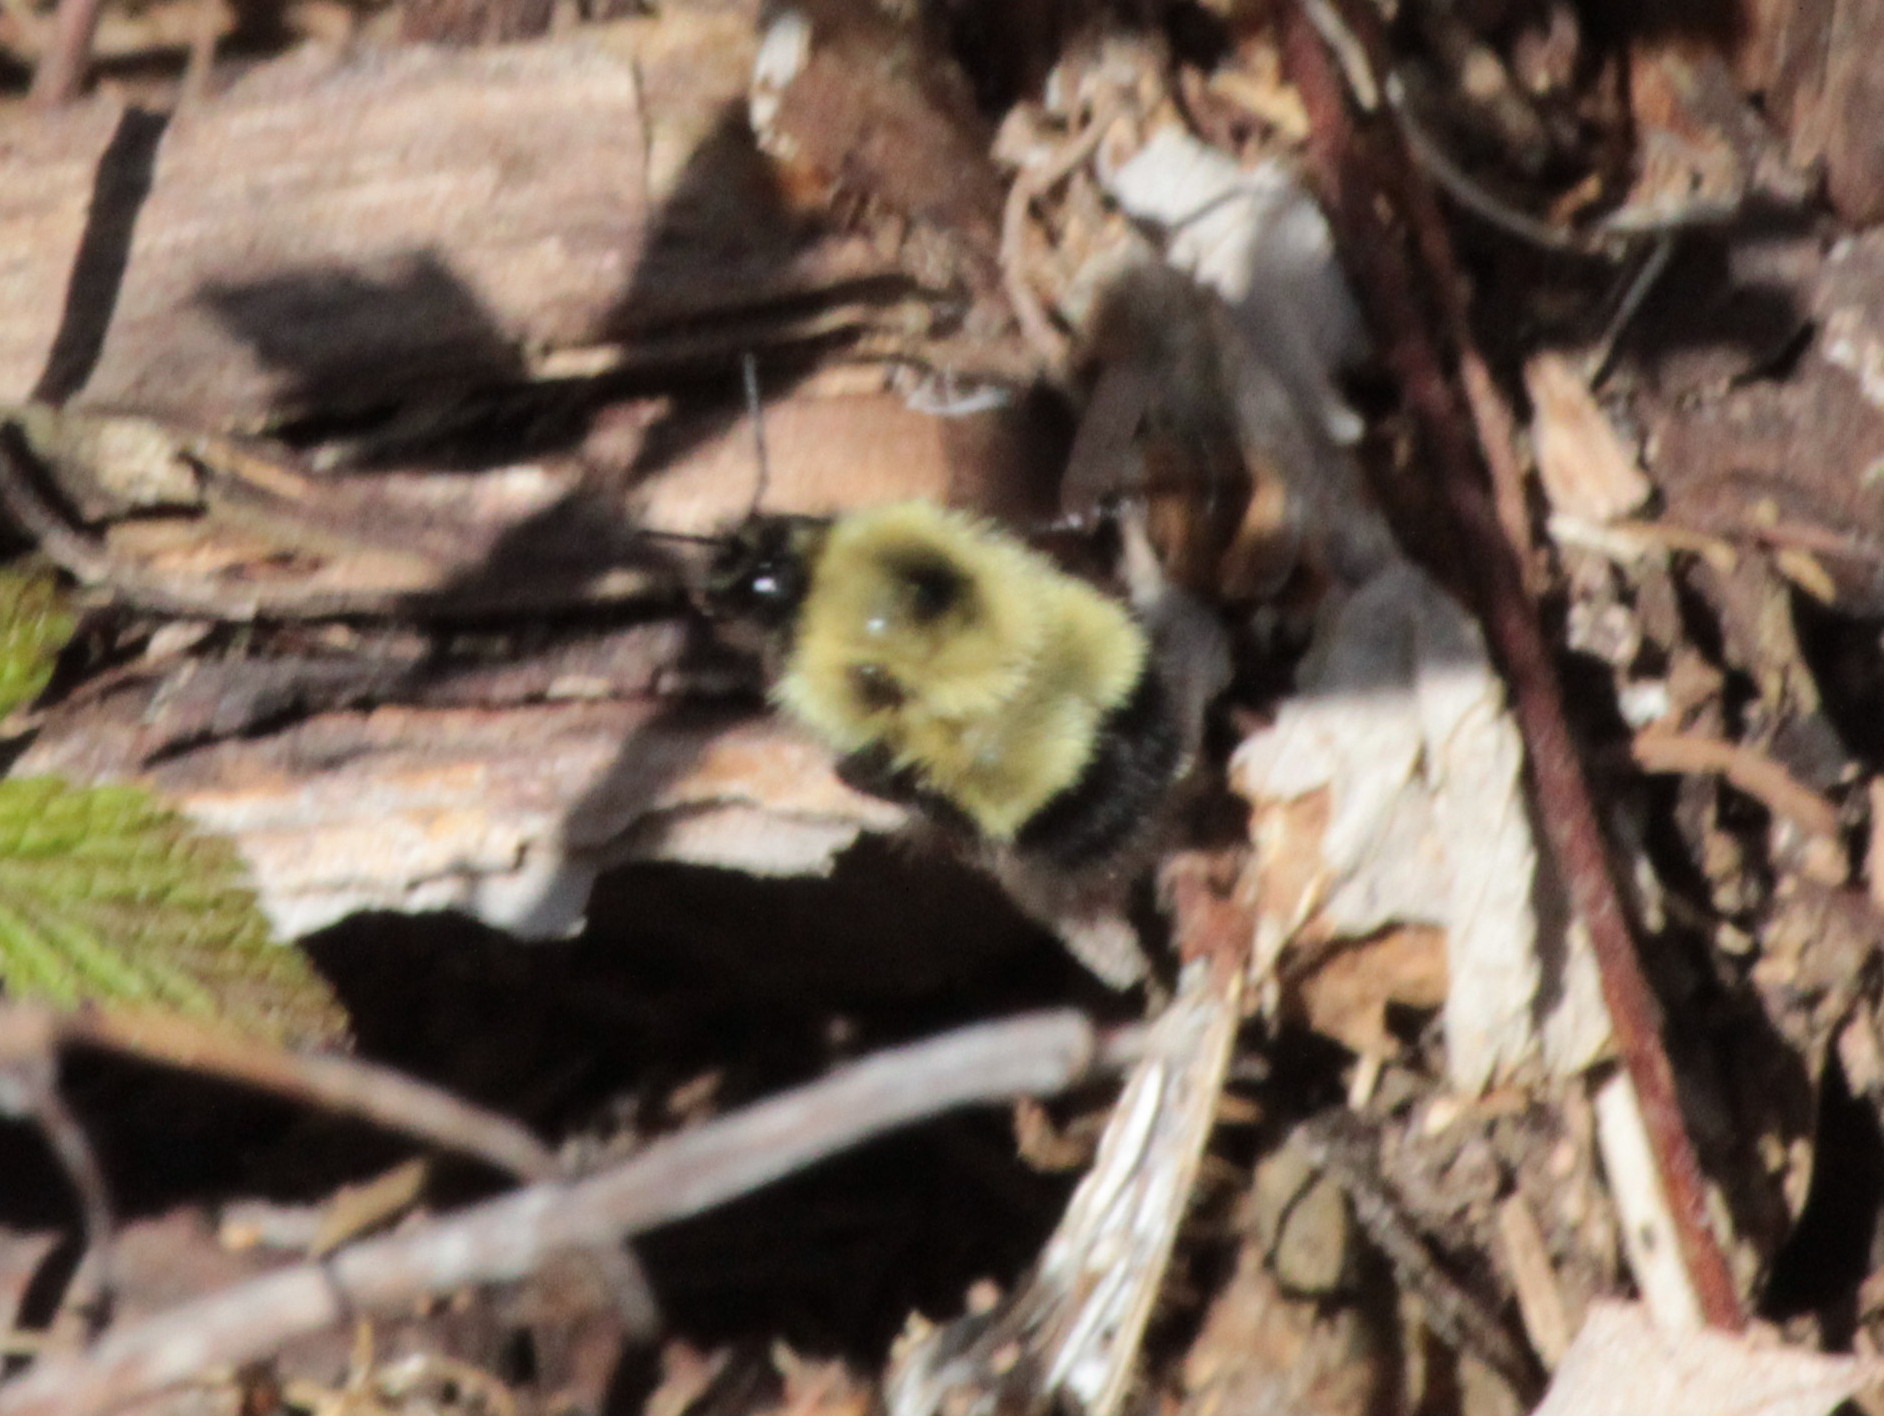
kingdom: Animalia
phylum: Arthropoda
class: Insecta
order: Hymenoptera
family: Apidae
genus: Pyrobombus
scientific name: Pyrobombus
